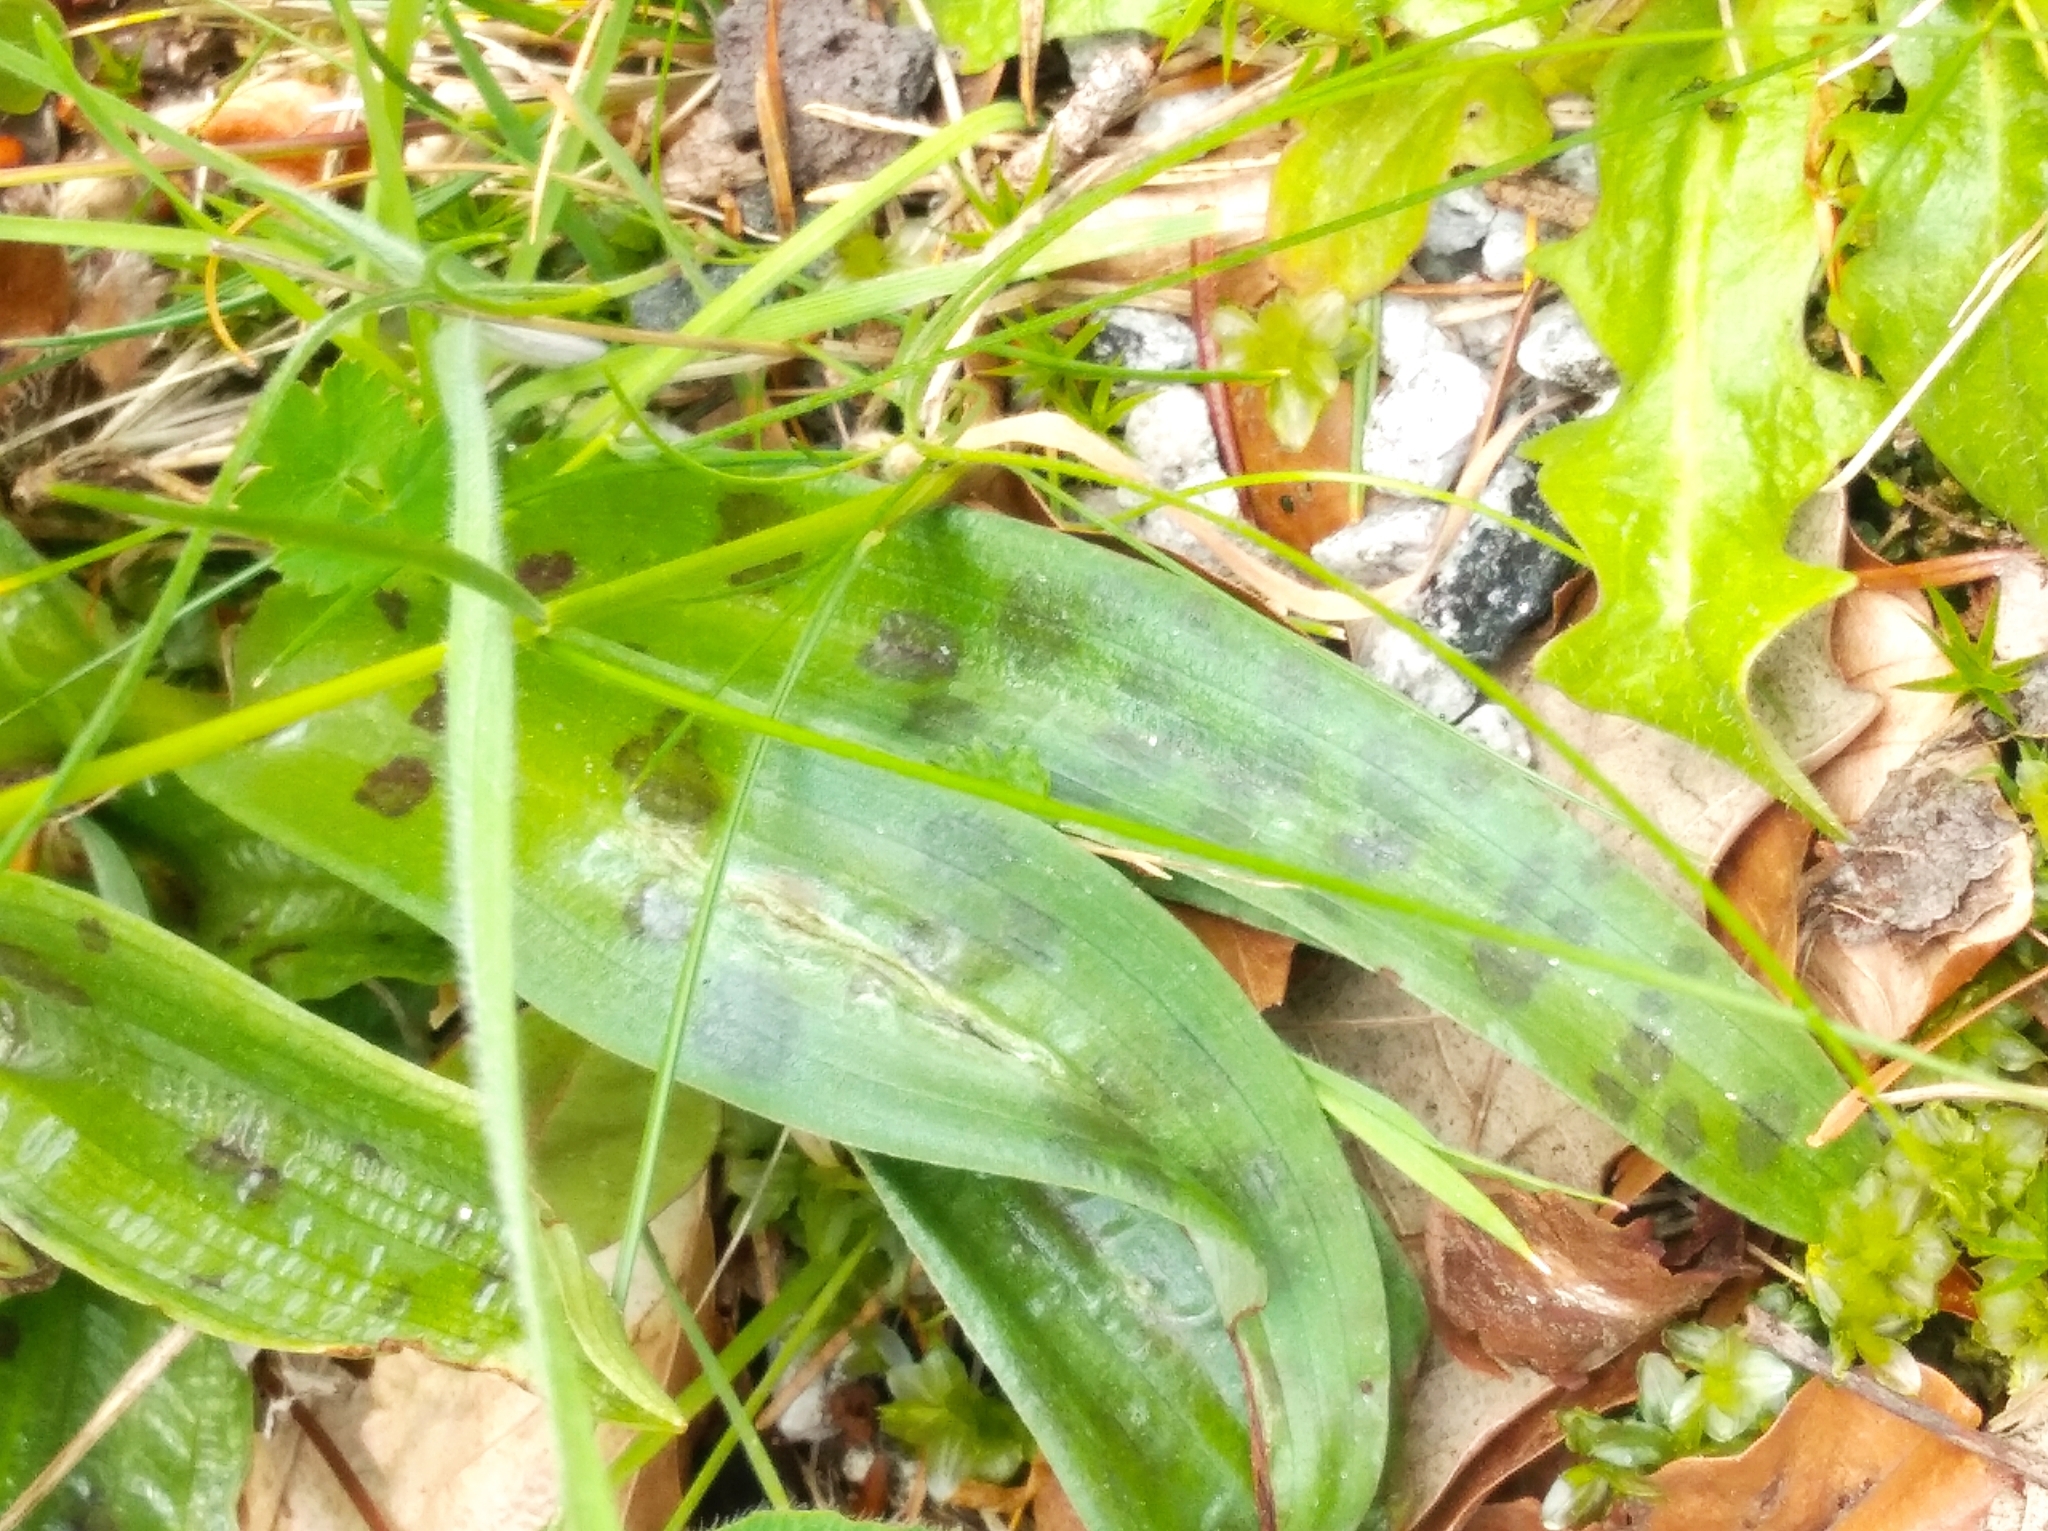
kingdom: Plantae
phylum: Tracheophyta
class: Liliopsida
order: Asparagales
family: Orchidaceae
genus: Orchis
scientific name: Orchis mascula
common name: Early-purple orchid
